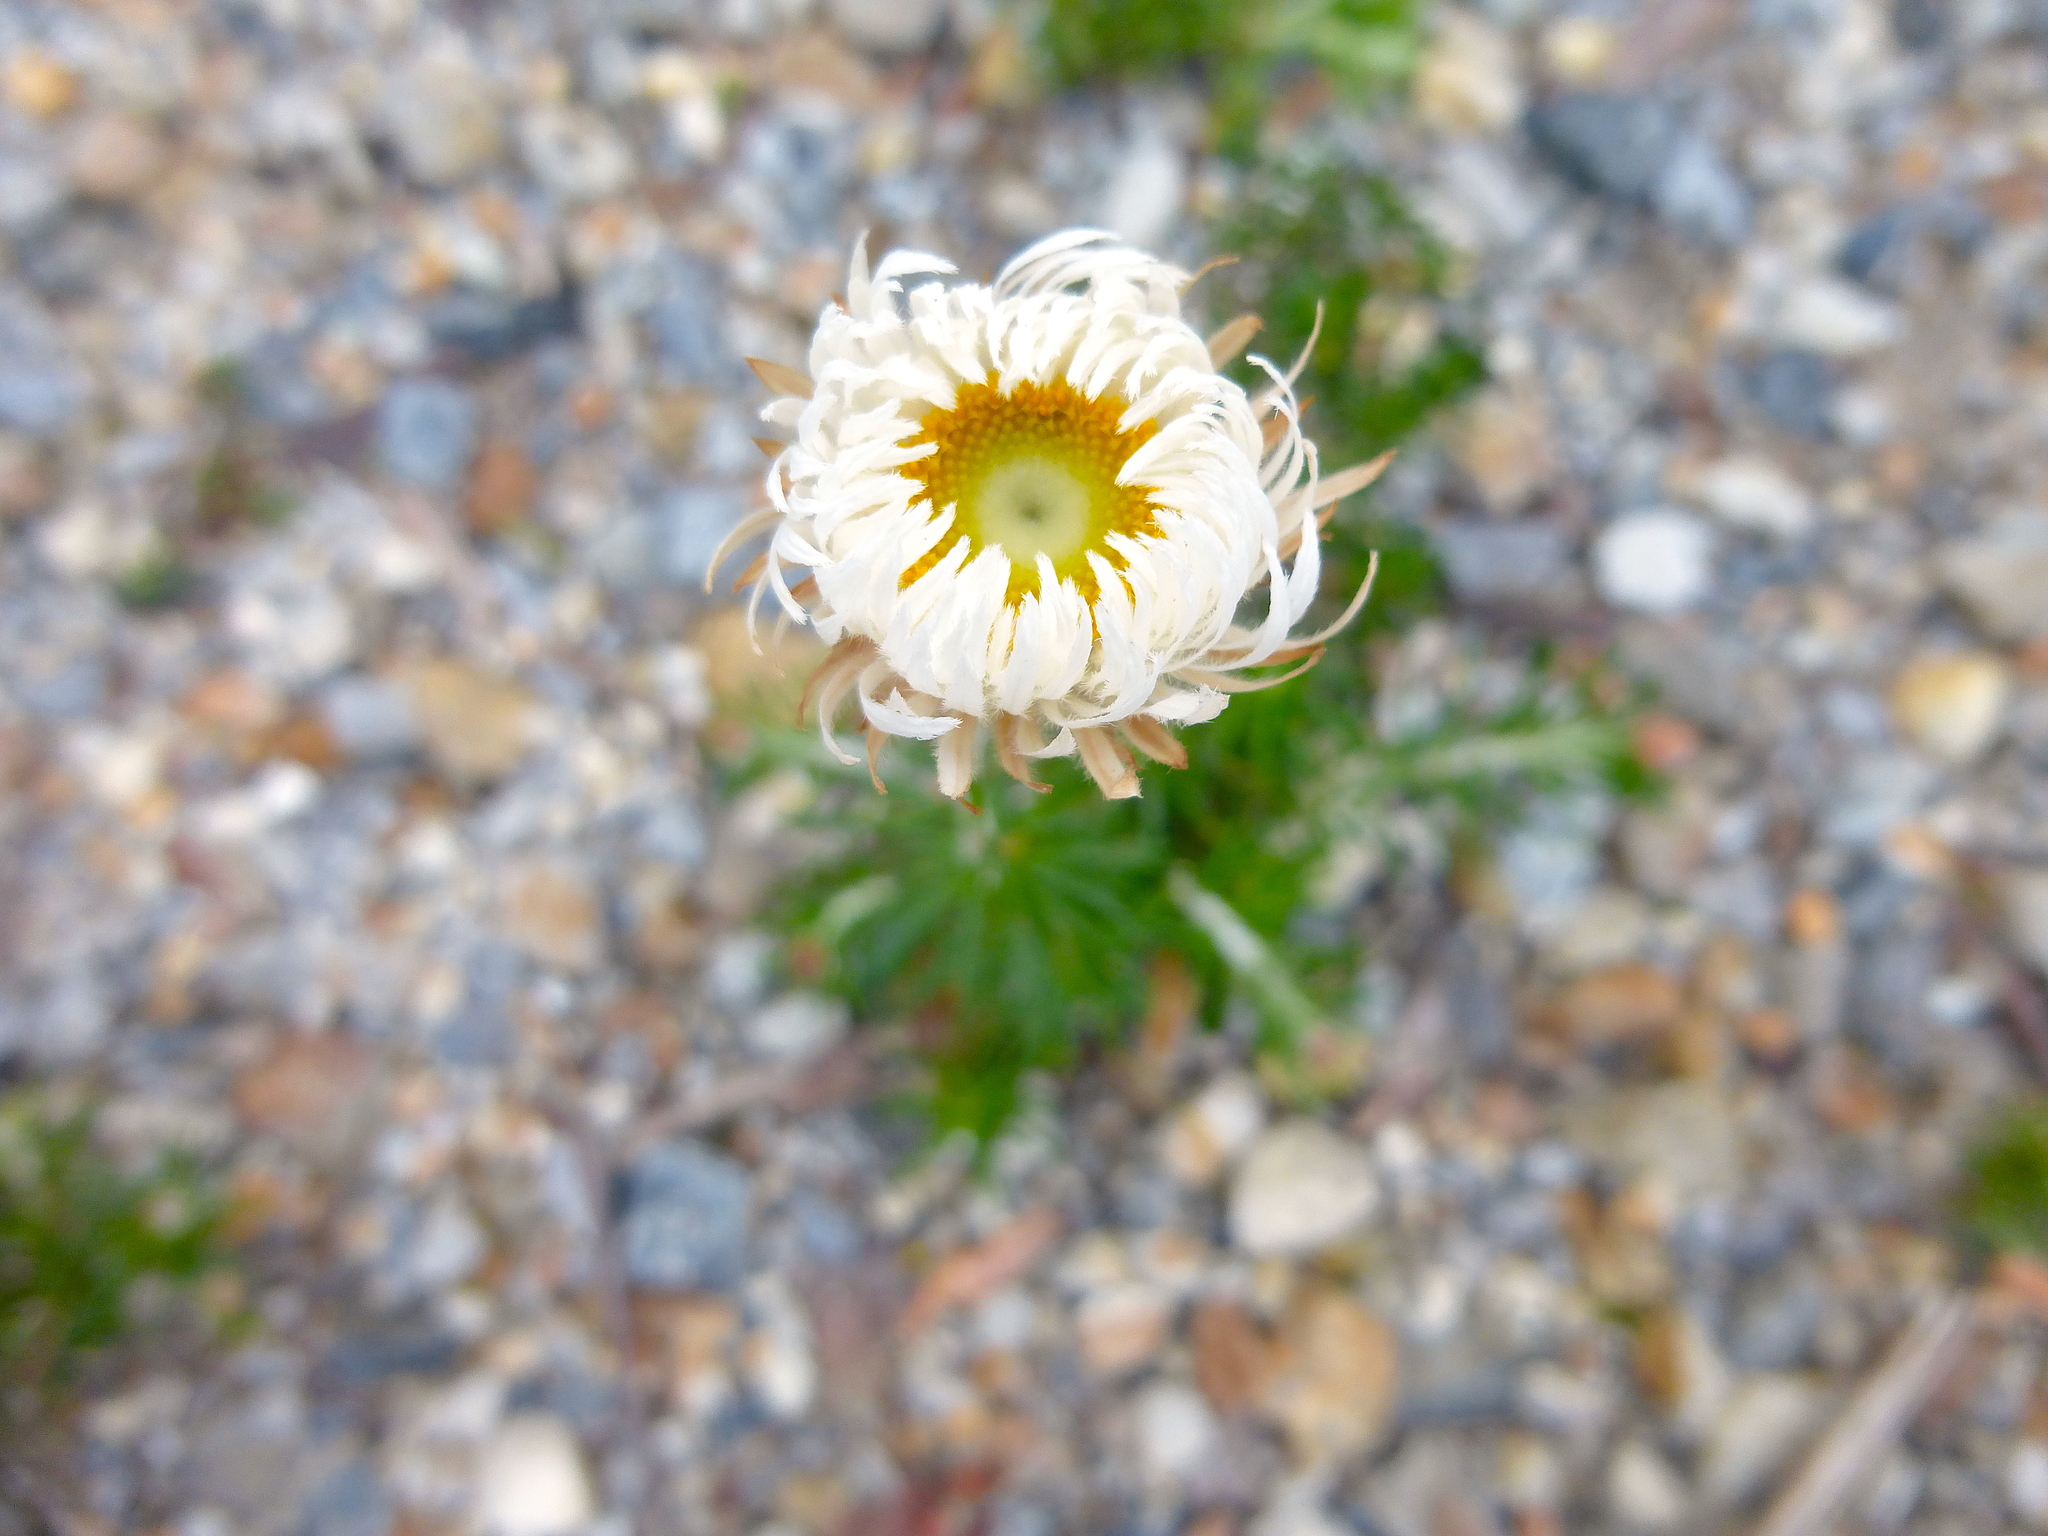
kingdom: Plantae
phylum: Tracheophyta
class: Magnoliopsida
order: Asterales
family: Asteraceae
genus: Chrysocephalum
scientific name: Chrysocephalum baxteri
